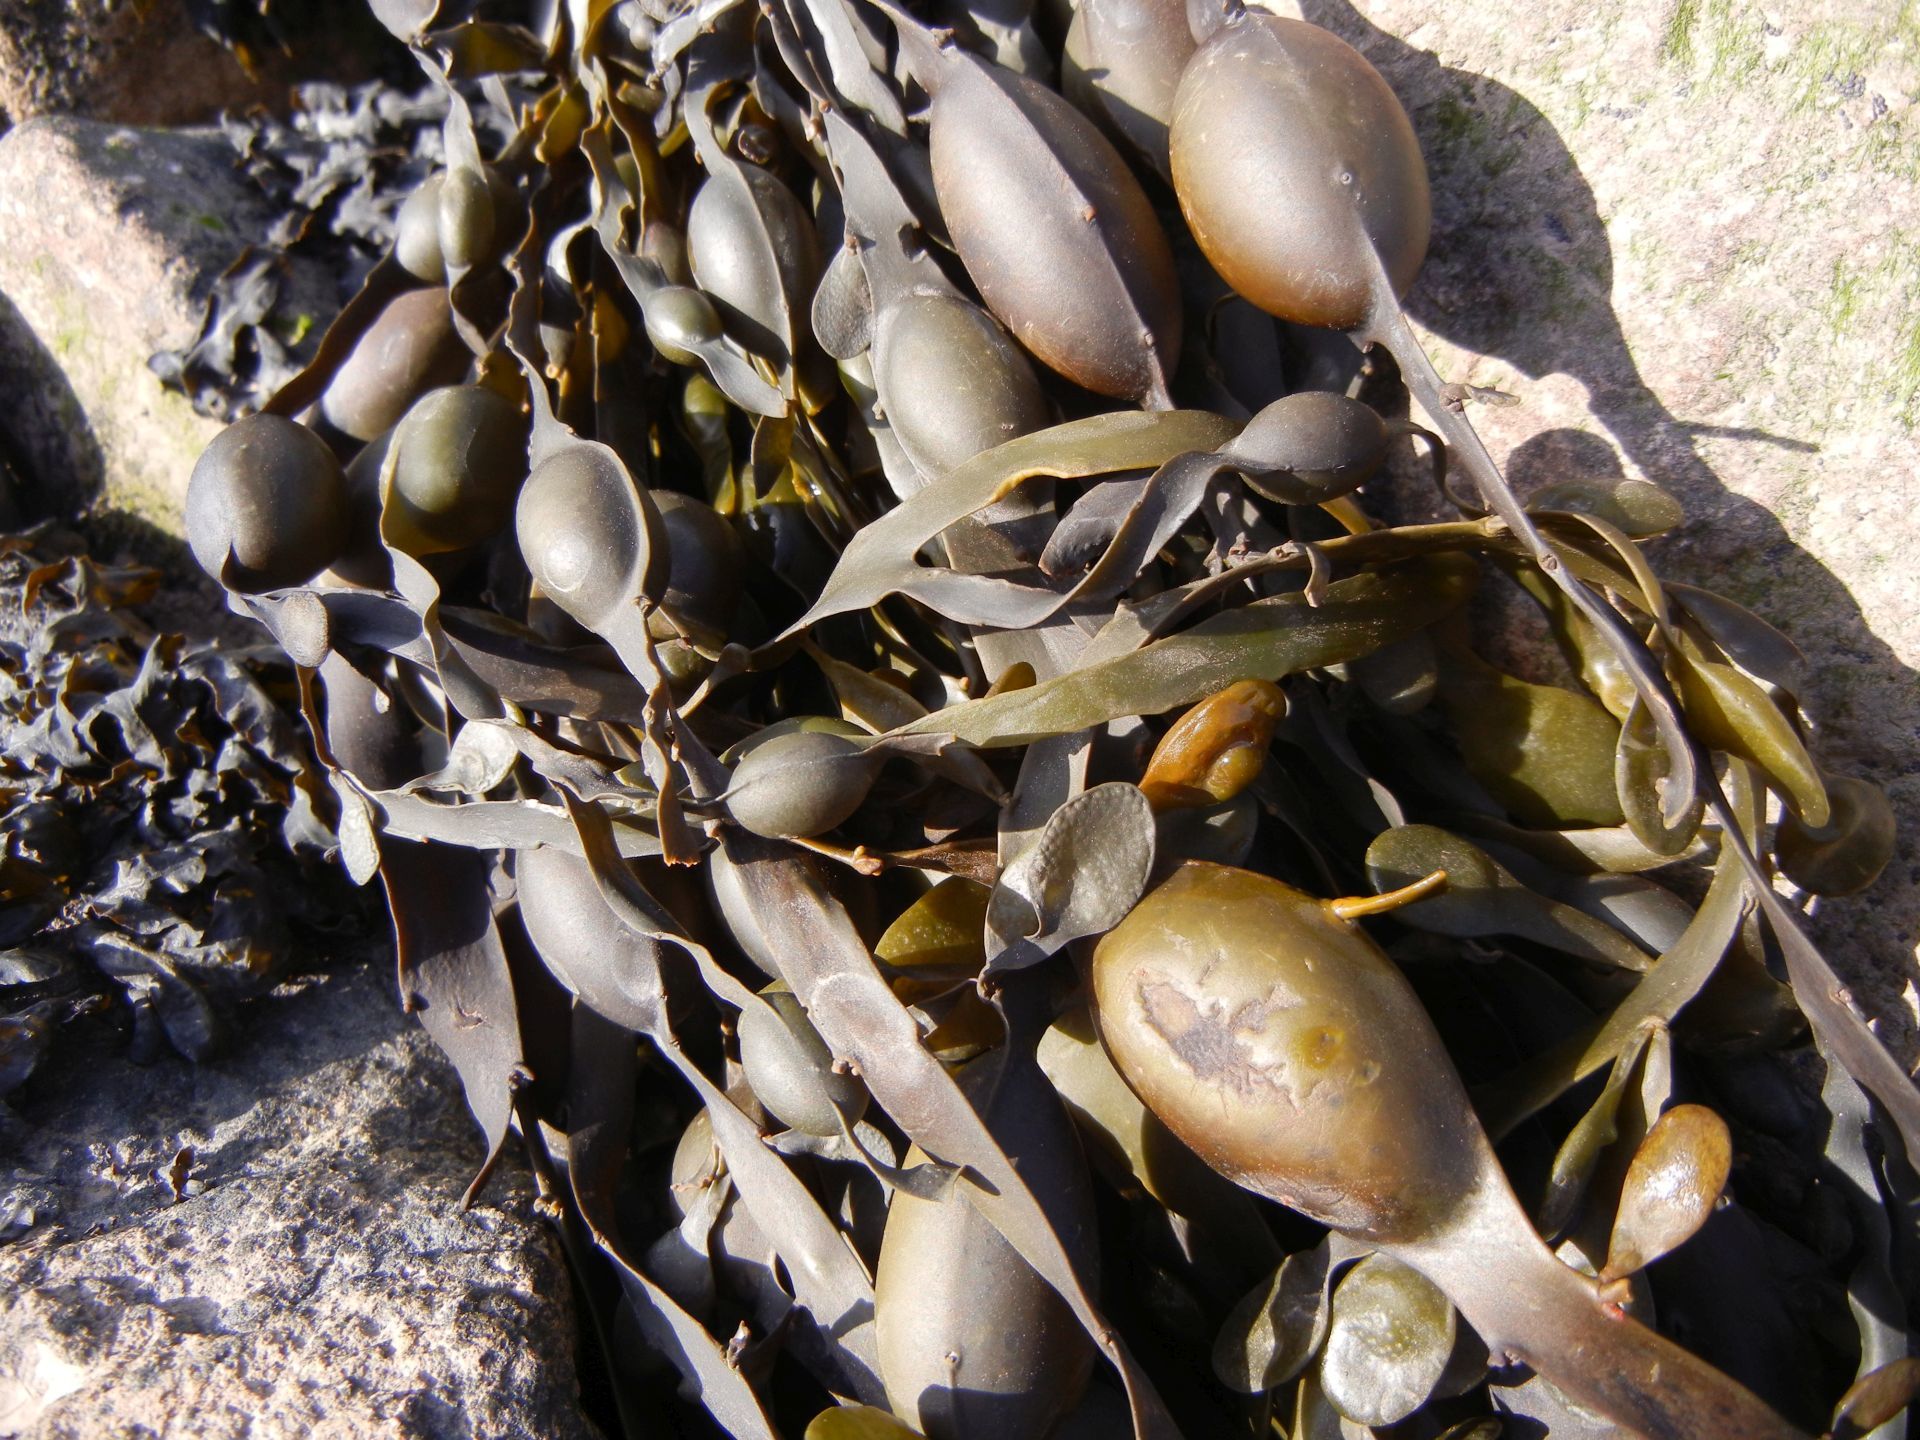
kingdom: Chromista
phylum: Ochrophyta
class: Phaeophyceae
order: Fucales
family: Fucaceae
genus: Ascophyllum
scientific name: Ascophyllum nodosum
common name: Knotted wrack
